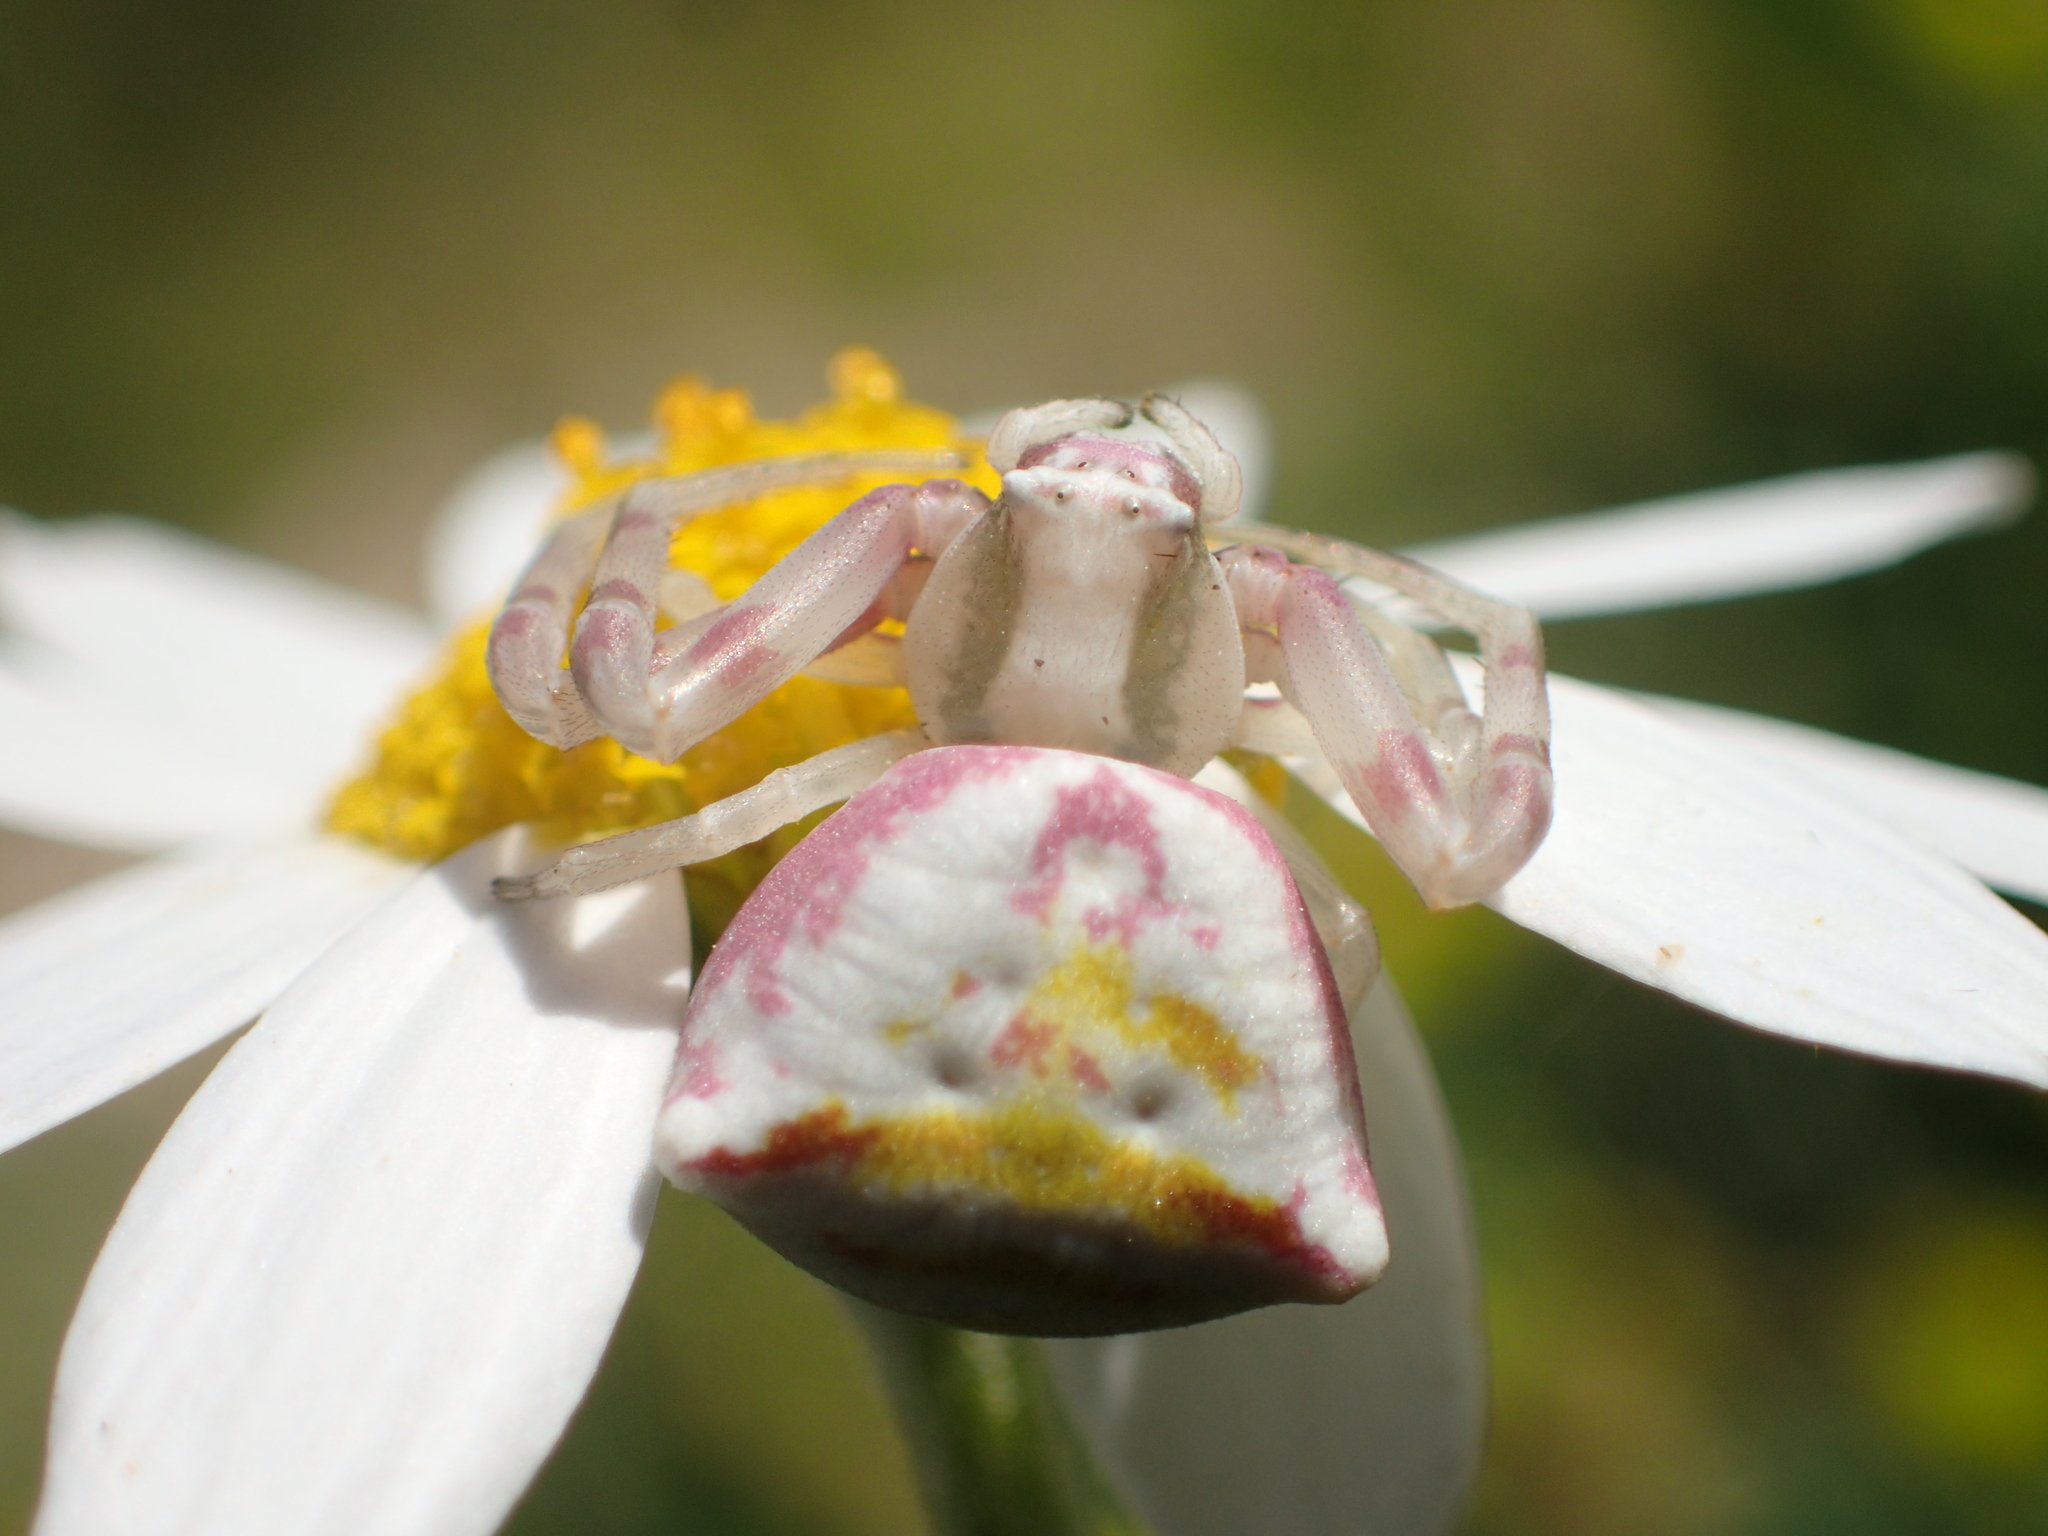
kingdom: Animalia
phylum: Arthropoda
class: Arachnida
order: Araneae
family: Thomisidae
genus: Thomisus
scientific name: Thomisus onustus
